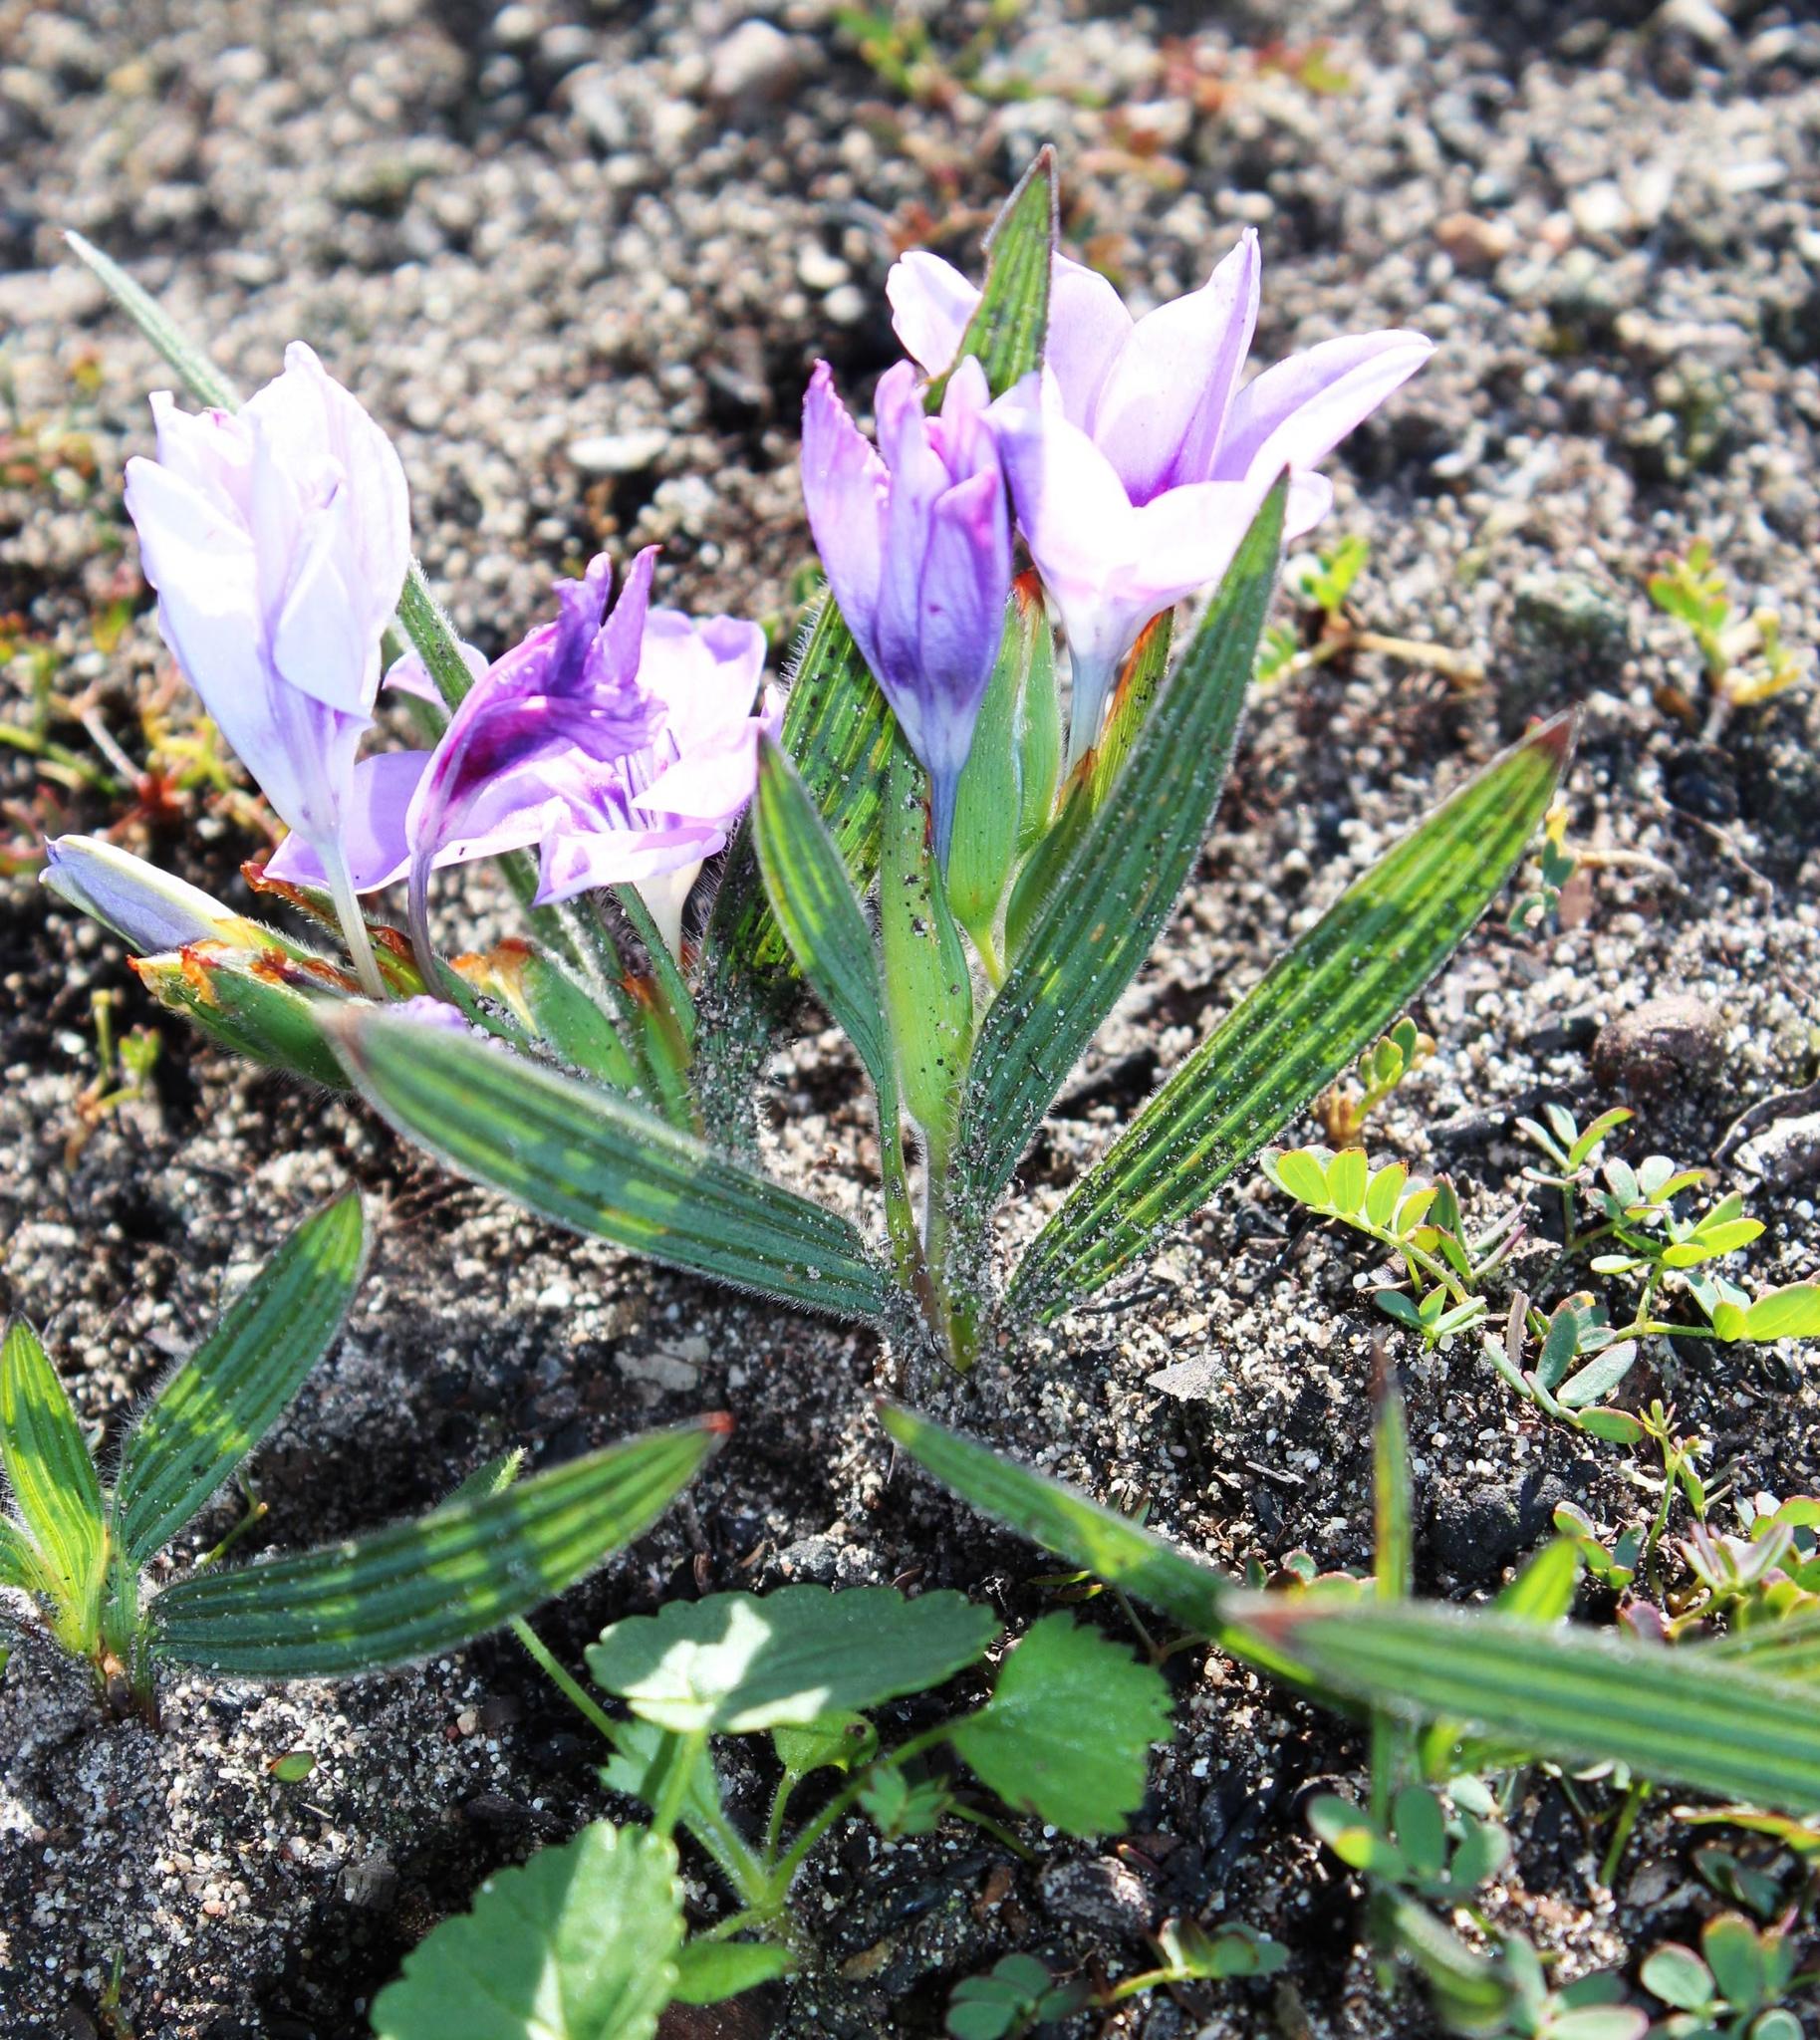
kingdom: Plantae
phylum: Tracheophyta
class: Liliopsida
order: Asparagales
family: Iridaceae
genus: Babiana
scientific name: Babiana villosula
